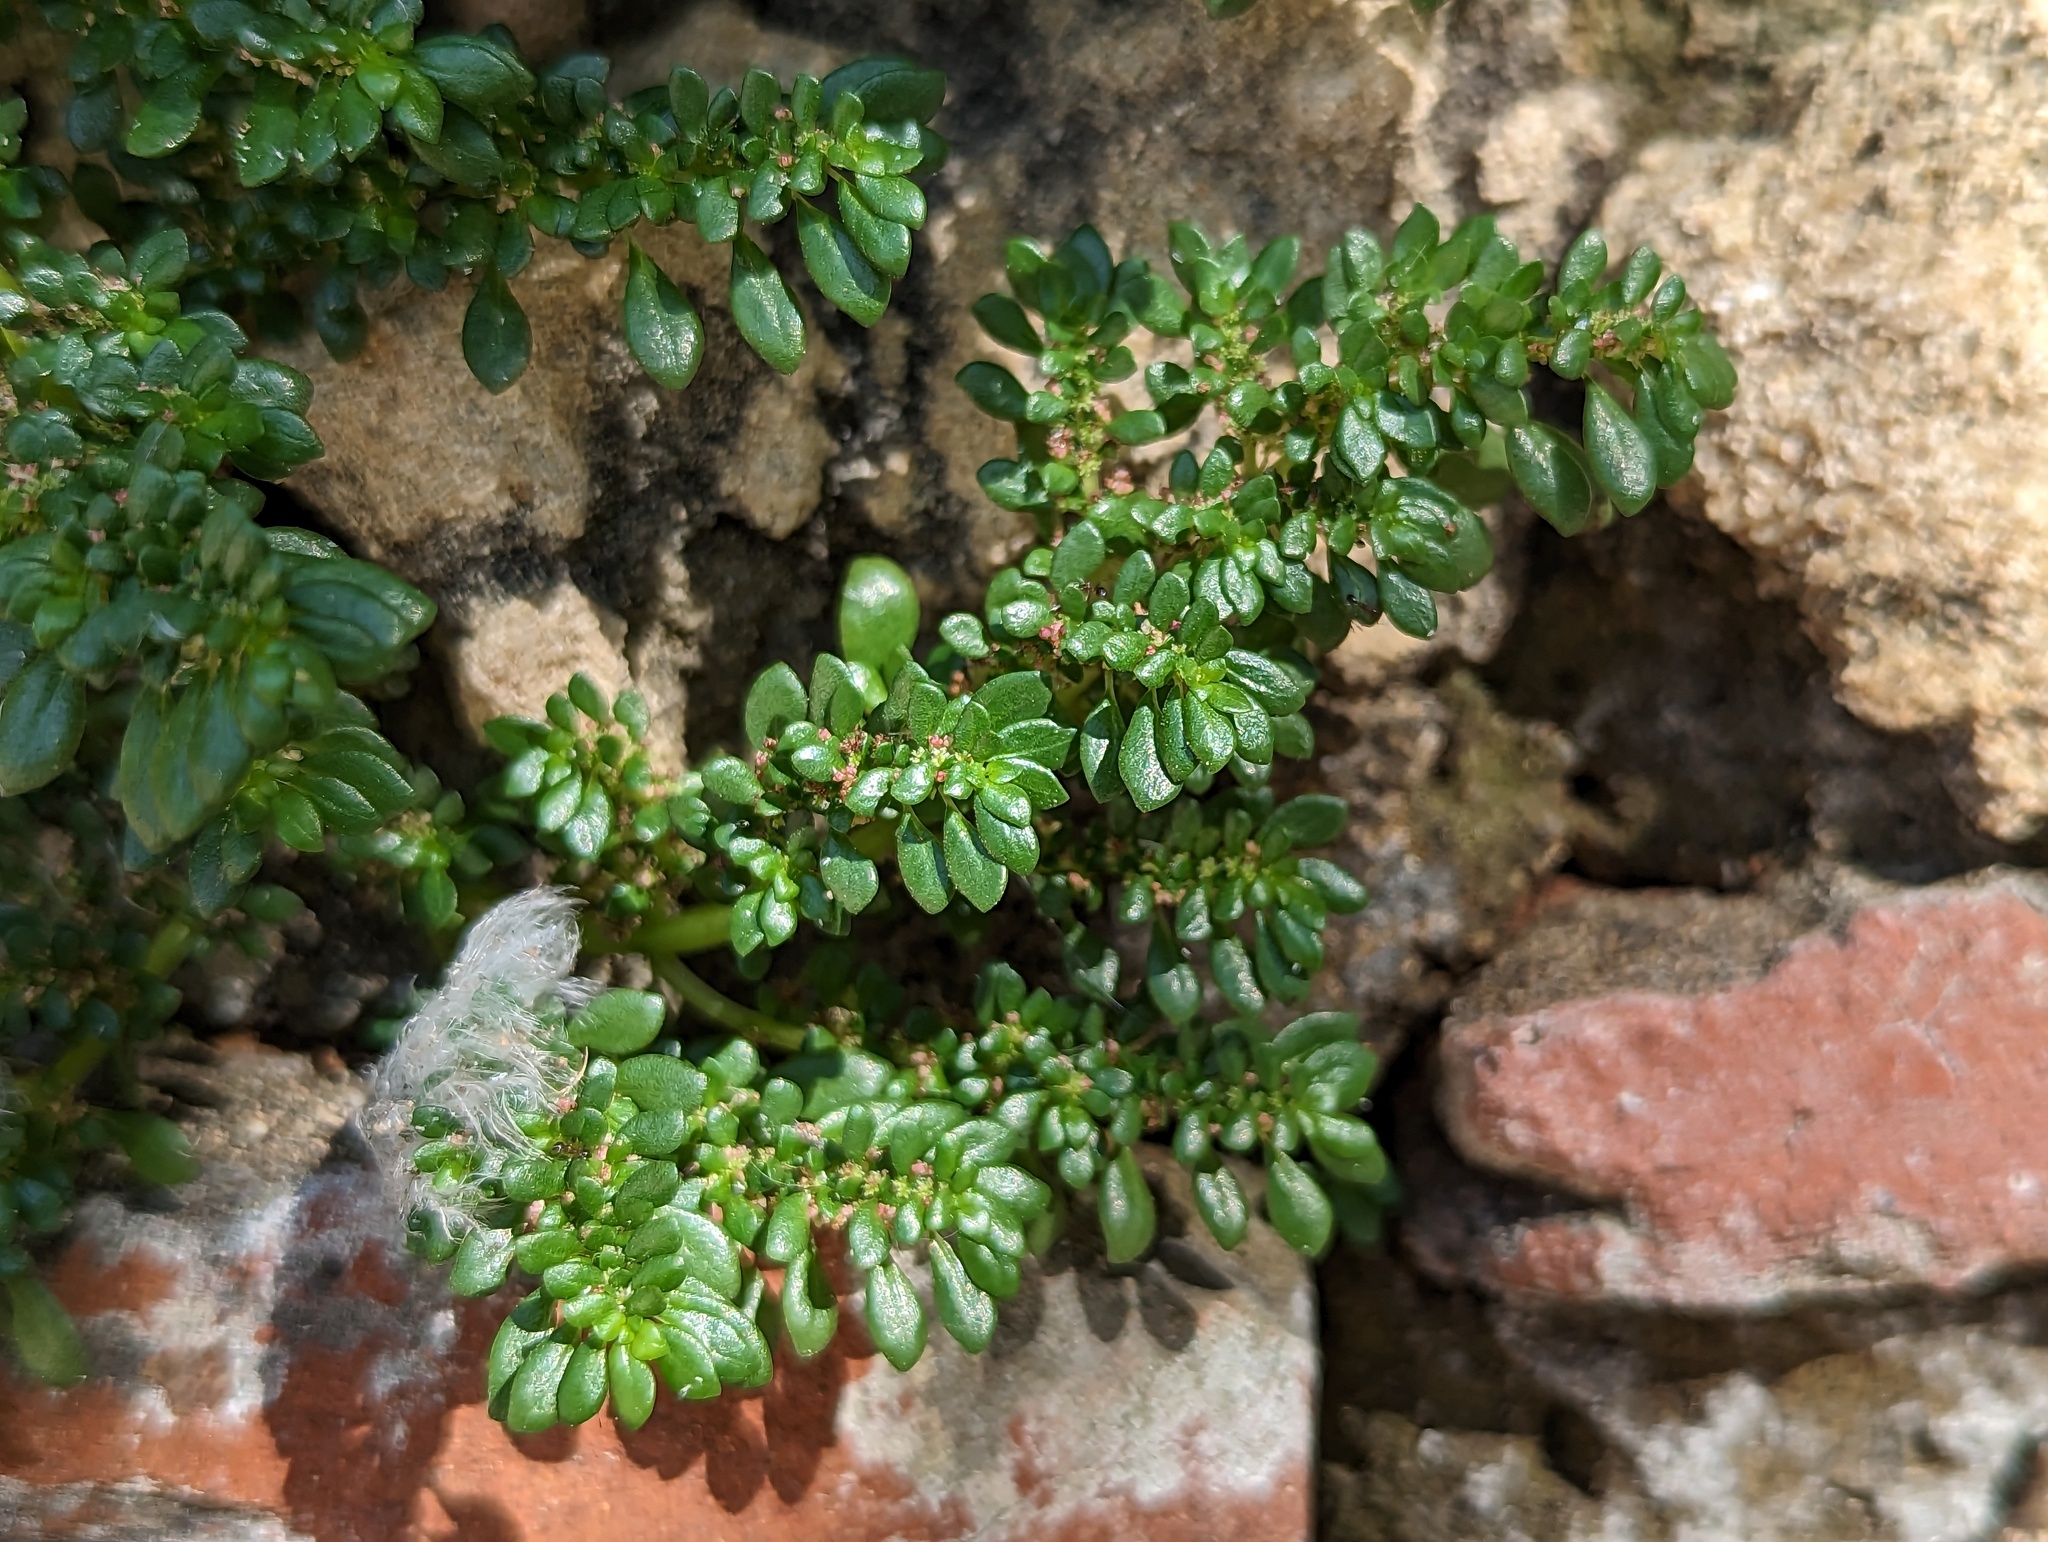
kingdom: Plantae
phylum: Tracheophyta
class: Magnoliopsida
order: Rosales
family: Urticaceae
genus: Pilea
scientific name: Pilea microphylla
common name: Artillery-plant
